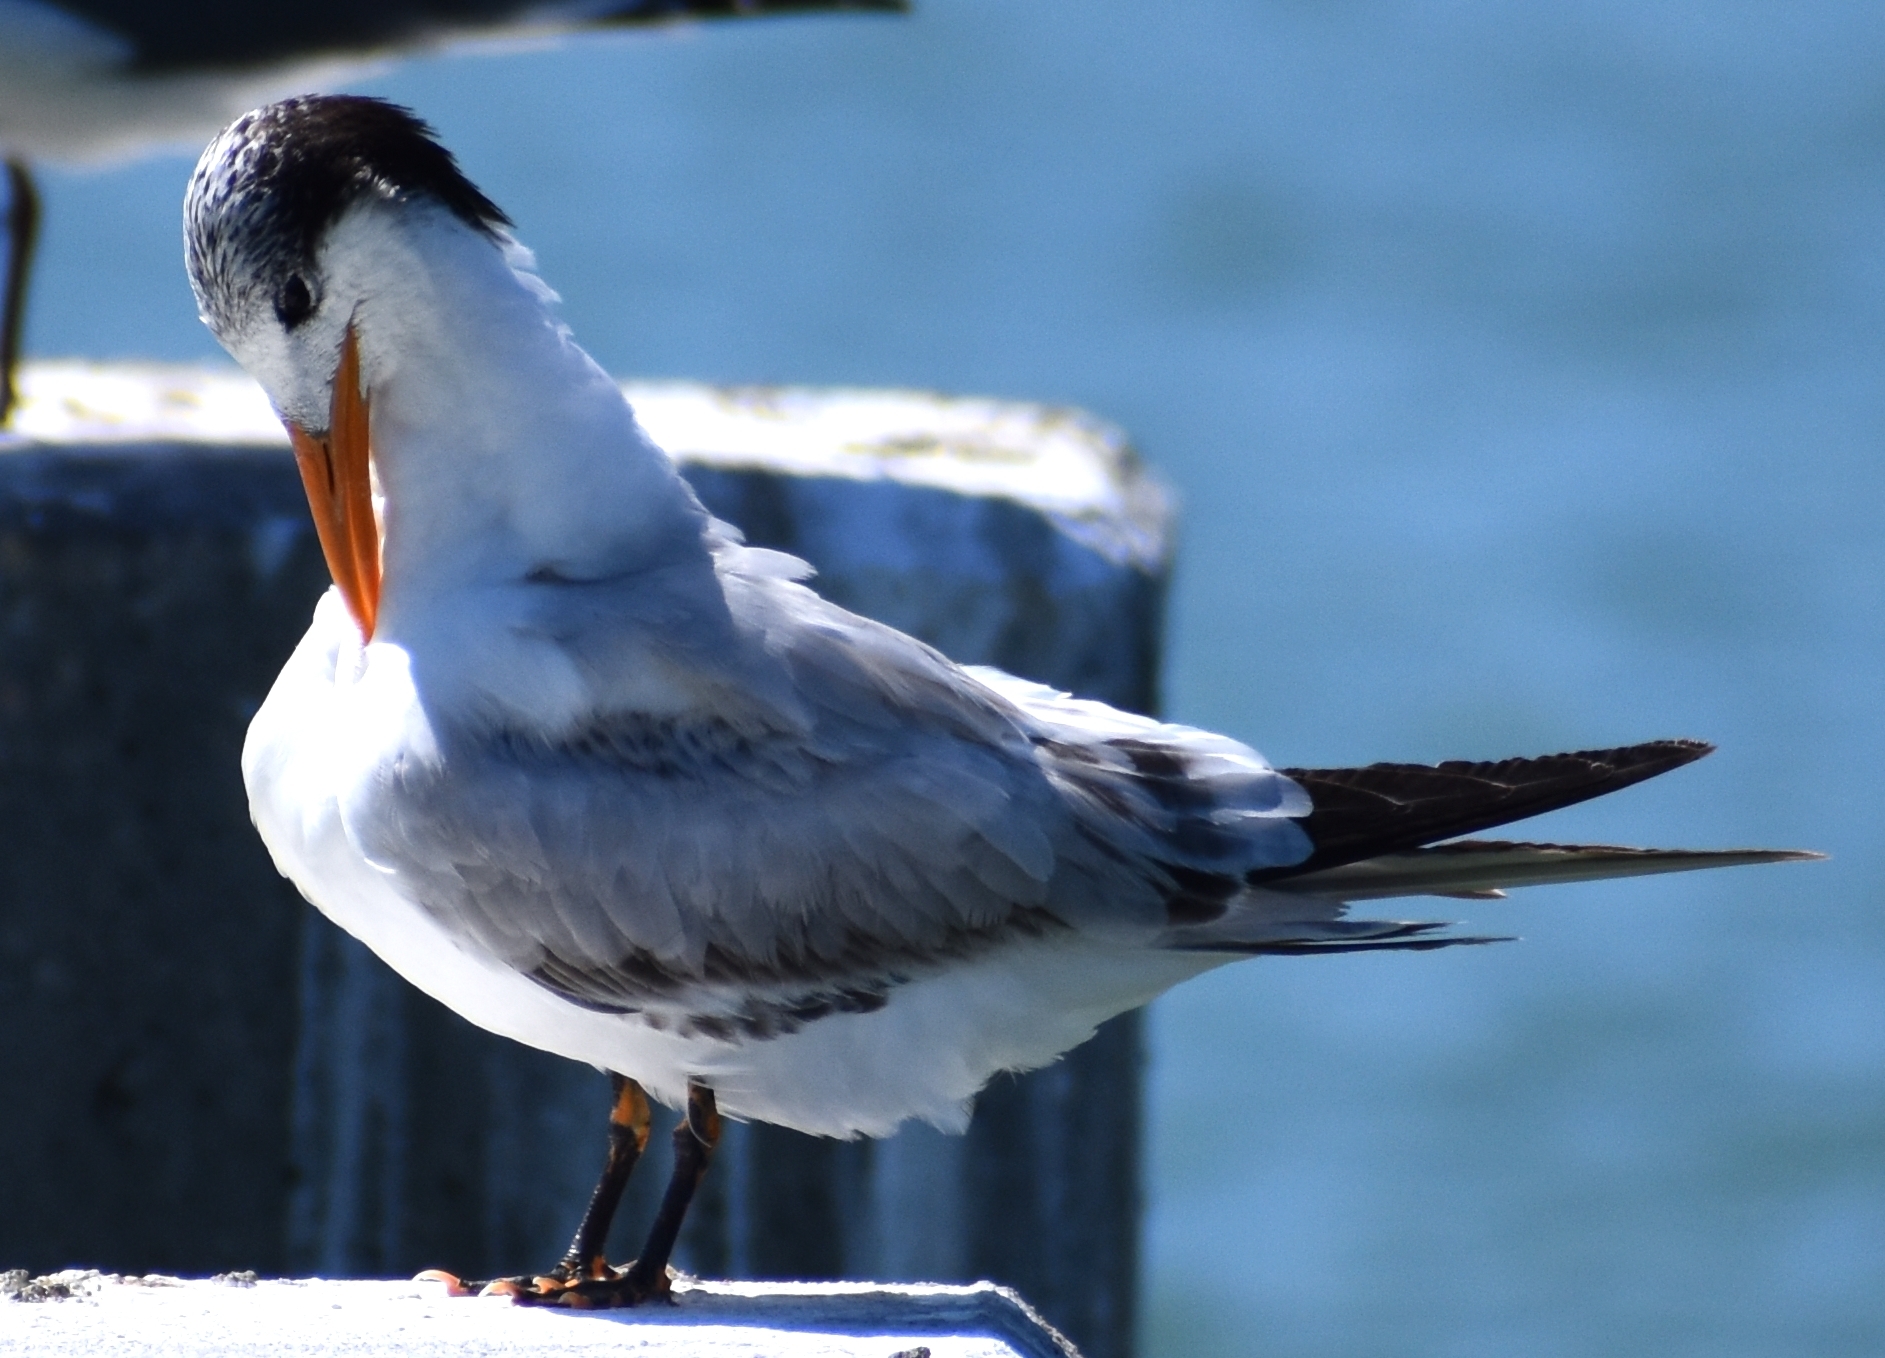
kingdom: Animalia
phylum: Chordata
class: Aves
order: Charadriiformes
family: Laridae
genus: Thalasseus
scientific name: Thalasseus maximus
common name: Royal tern
